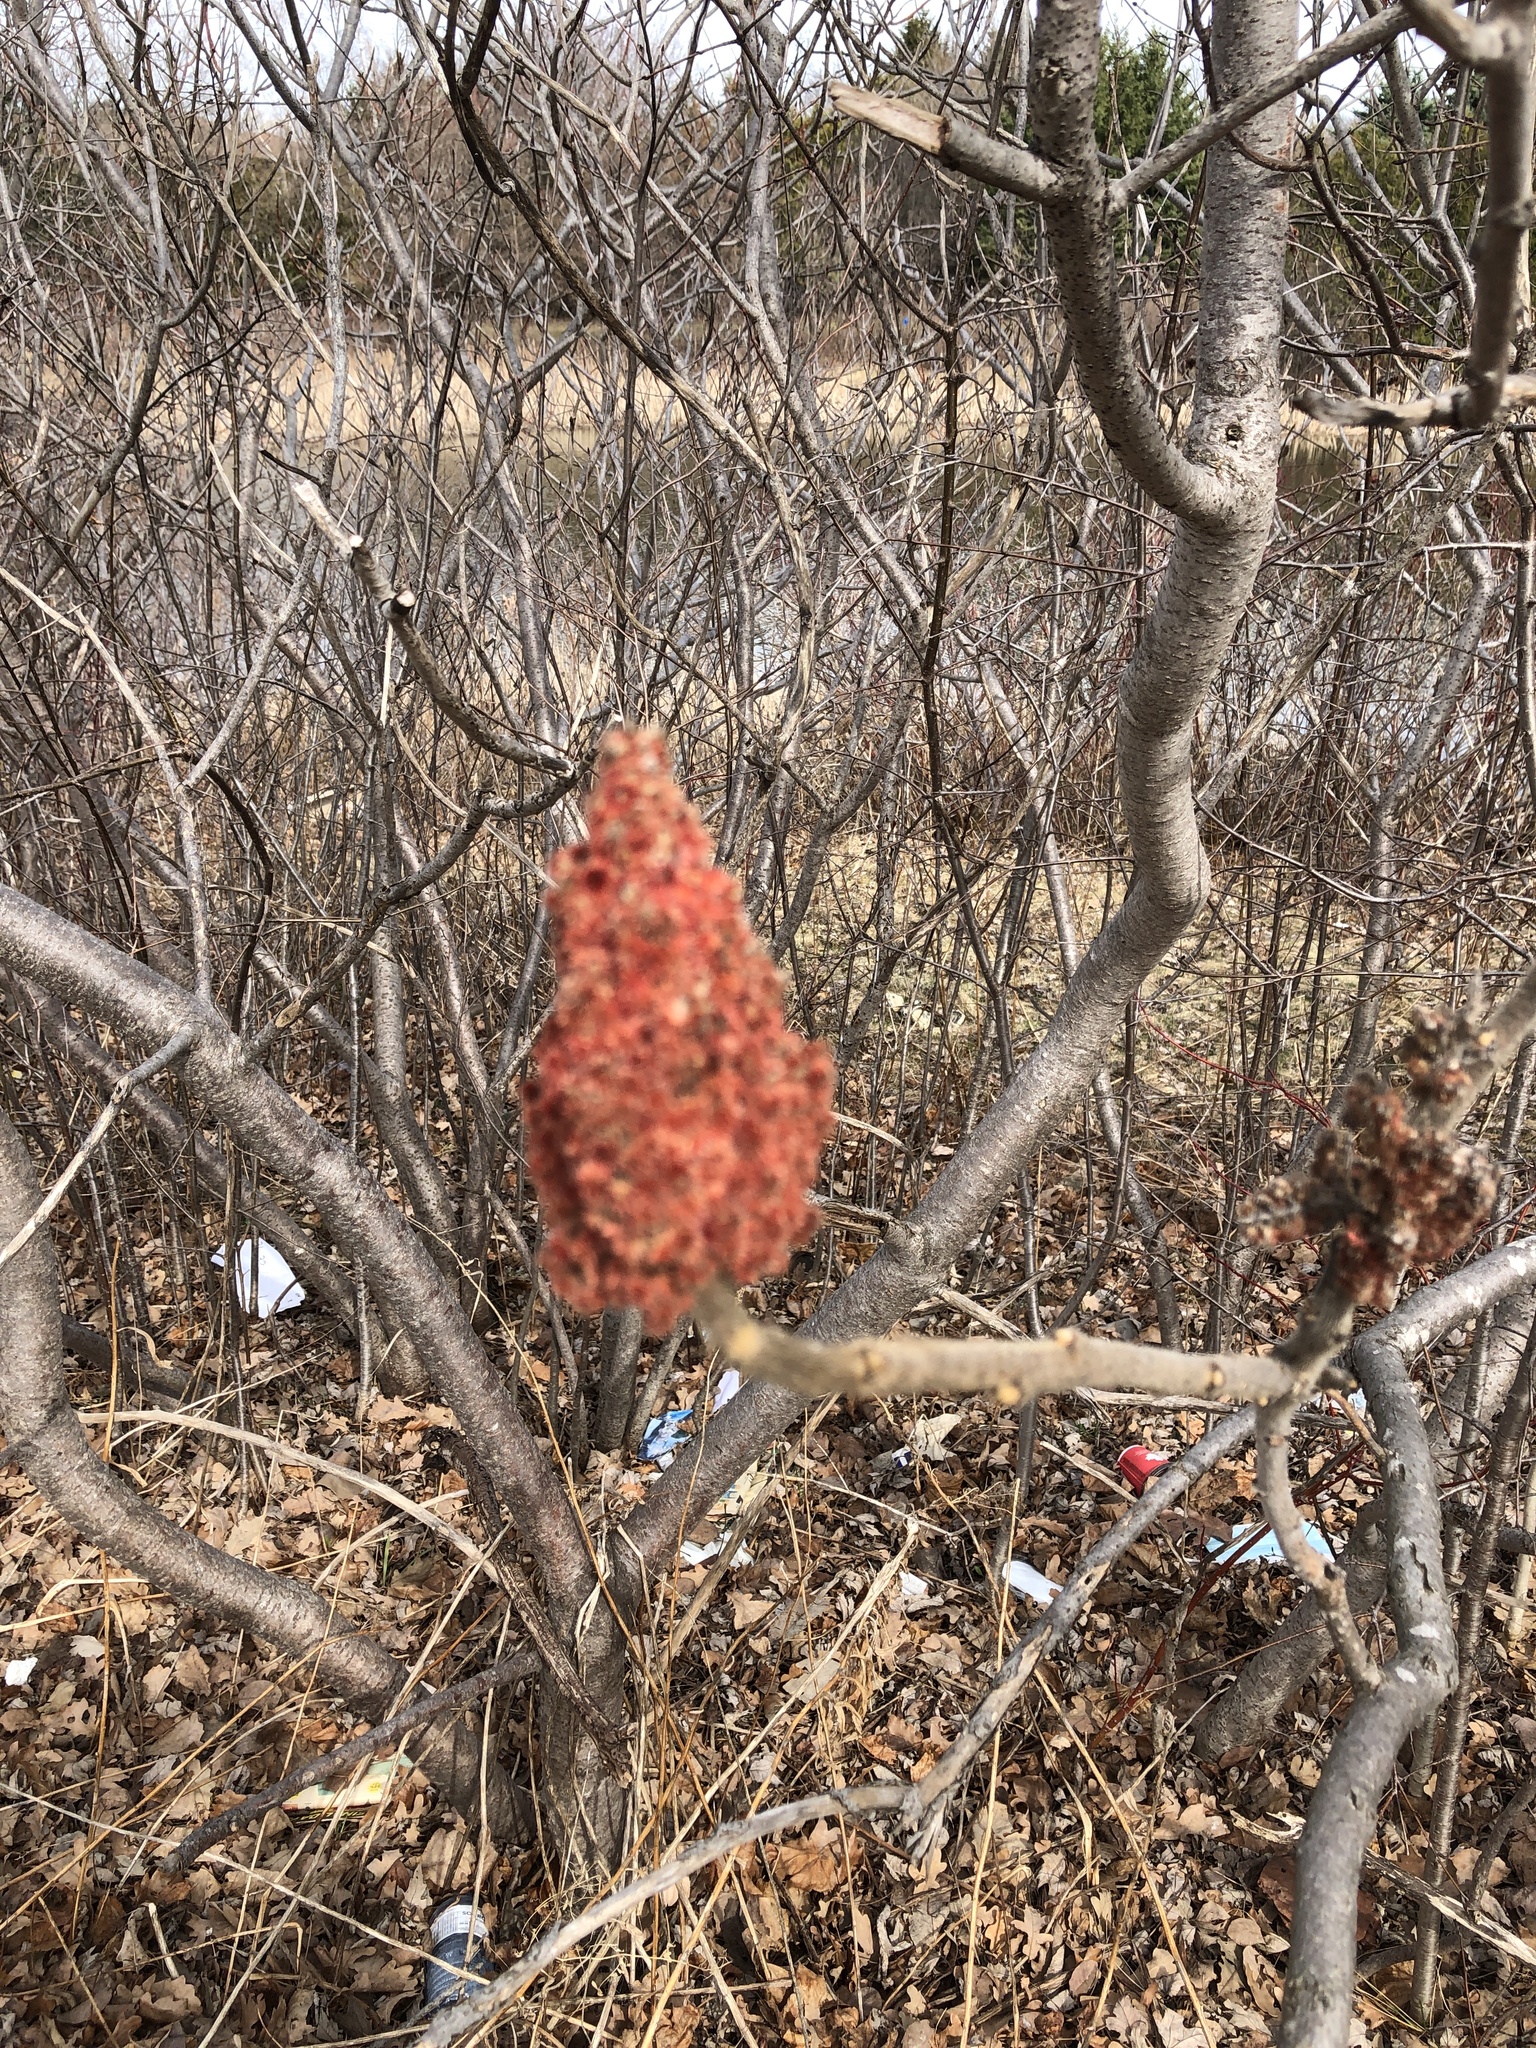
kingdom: Plantae
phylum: Tracheophyta
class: Magnoliopsida
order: Sapindales
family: Anacardiaceae
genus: Rhus
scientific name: Rhus typhina
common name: Staghorn sumac
